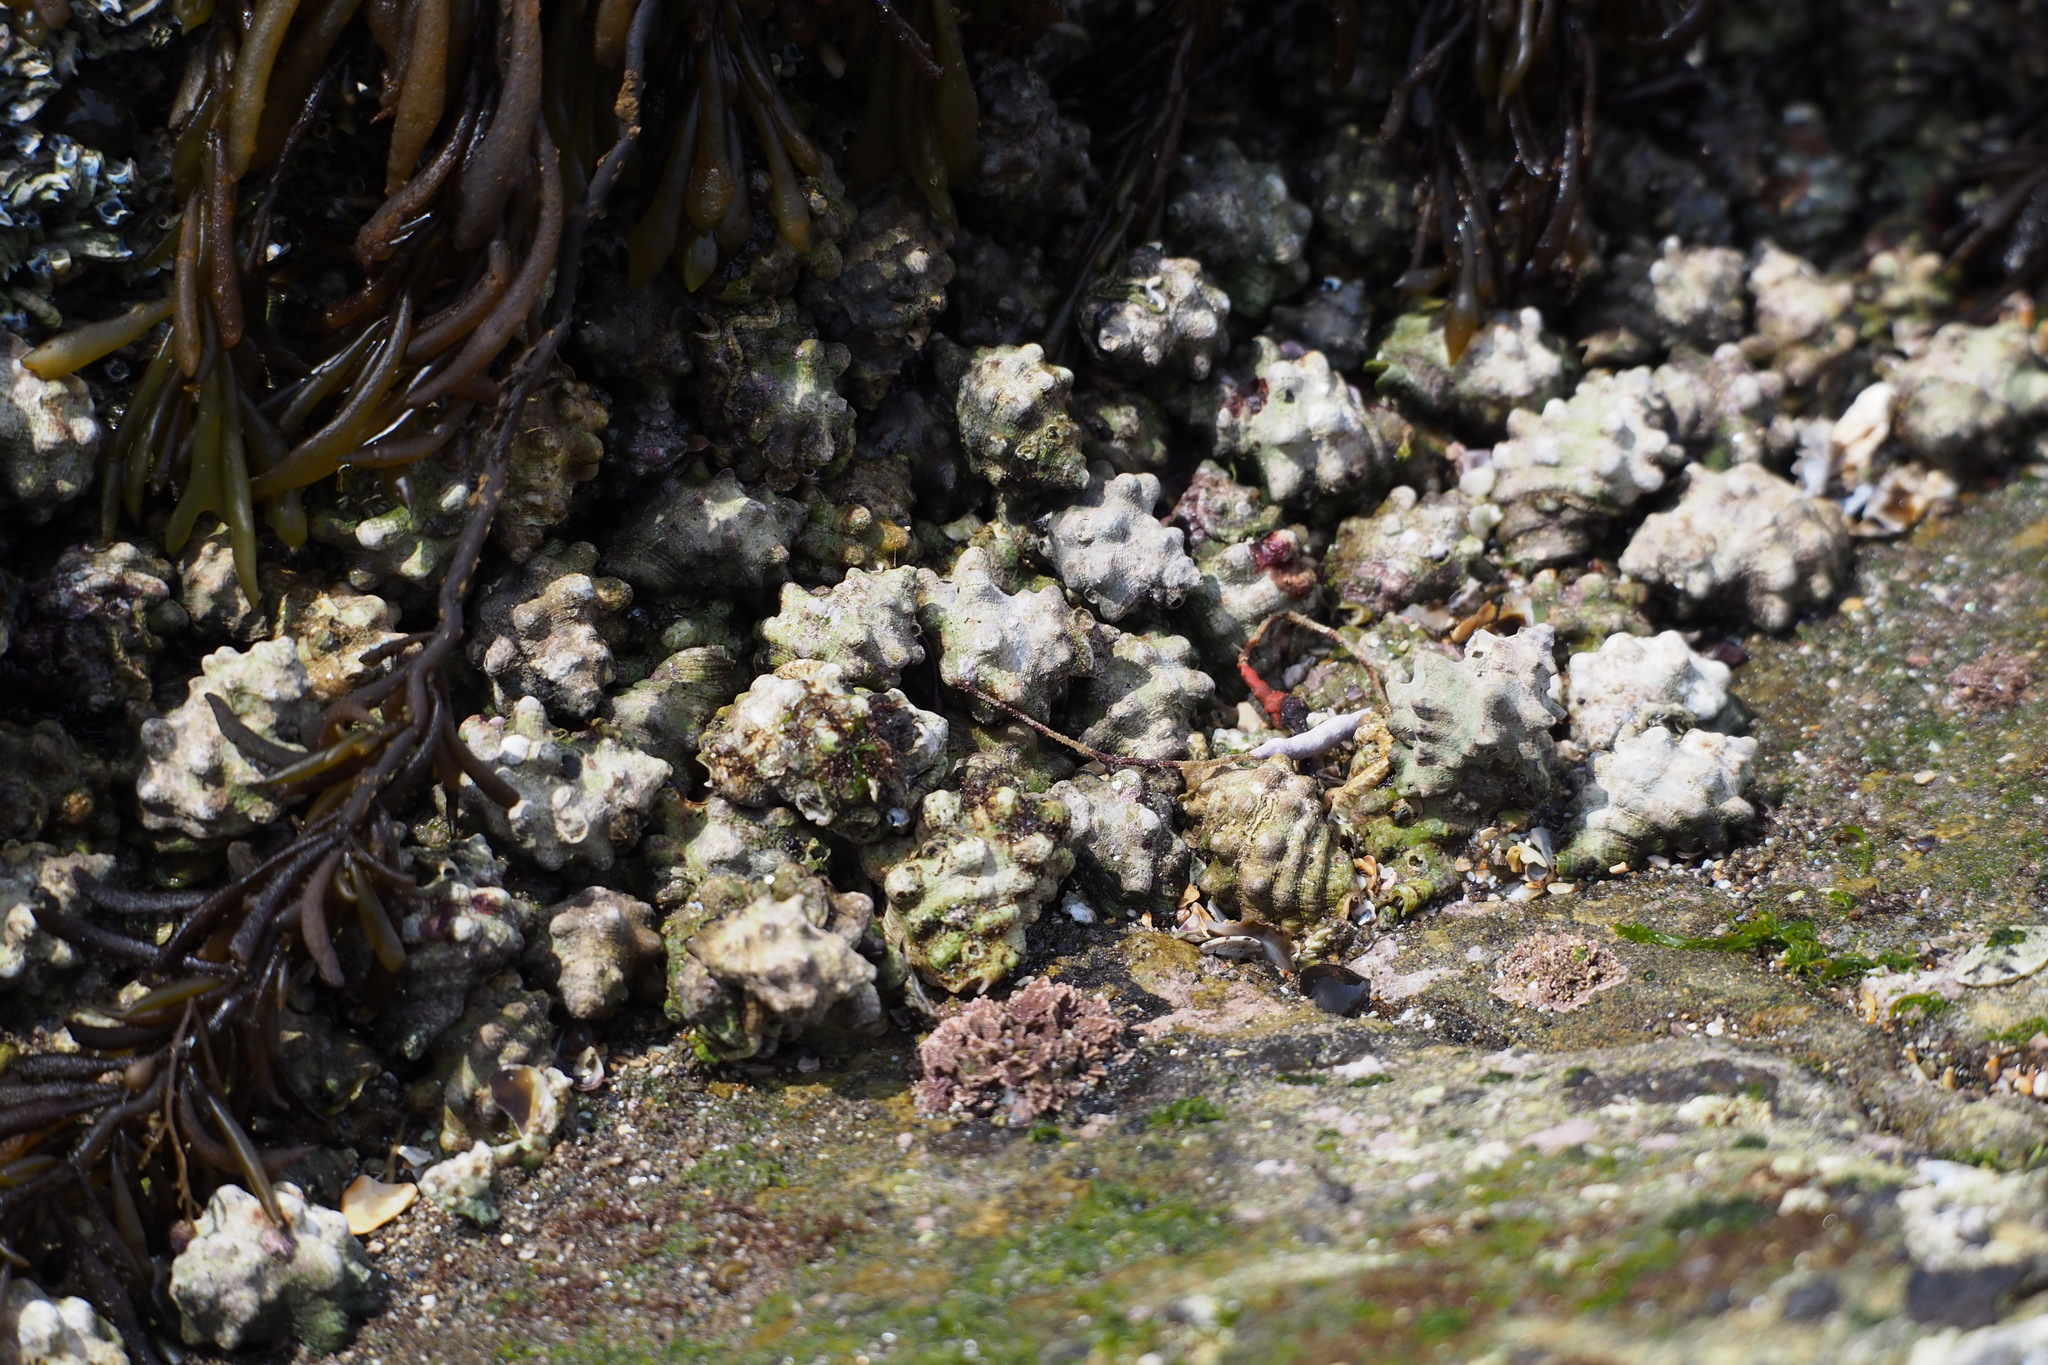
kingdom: Animalia
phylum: Mollusca
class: Gastropoda
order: Neogastropoda
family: Muricidae
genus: Reishia
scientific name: Reishia clavigera
